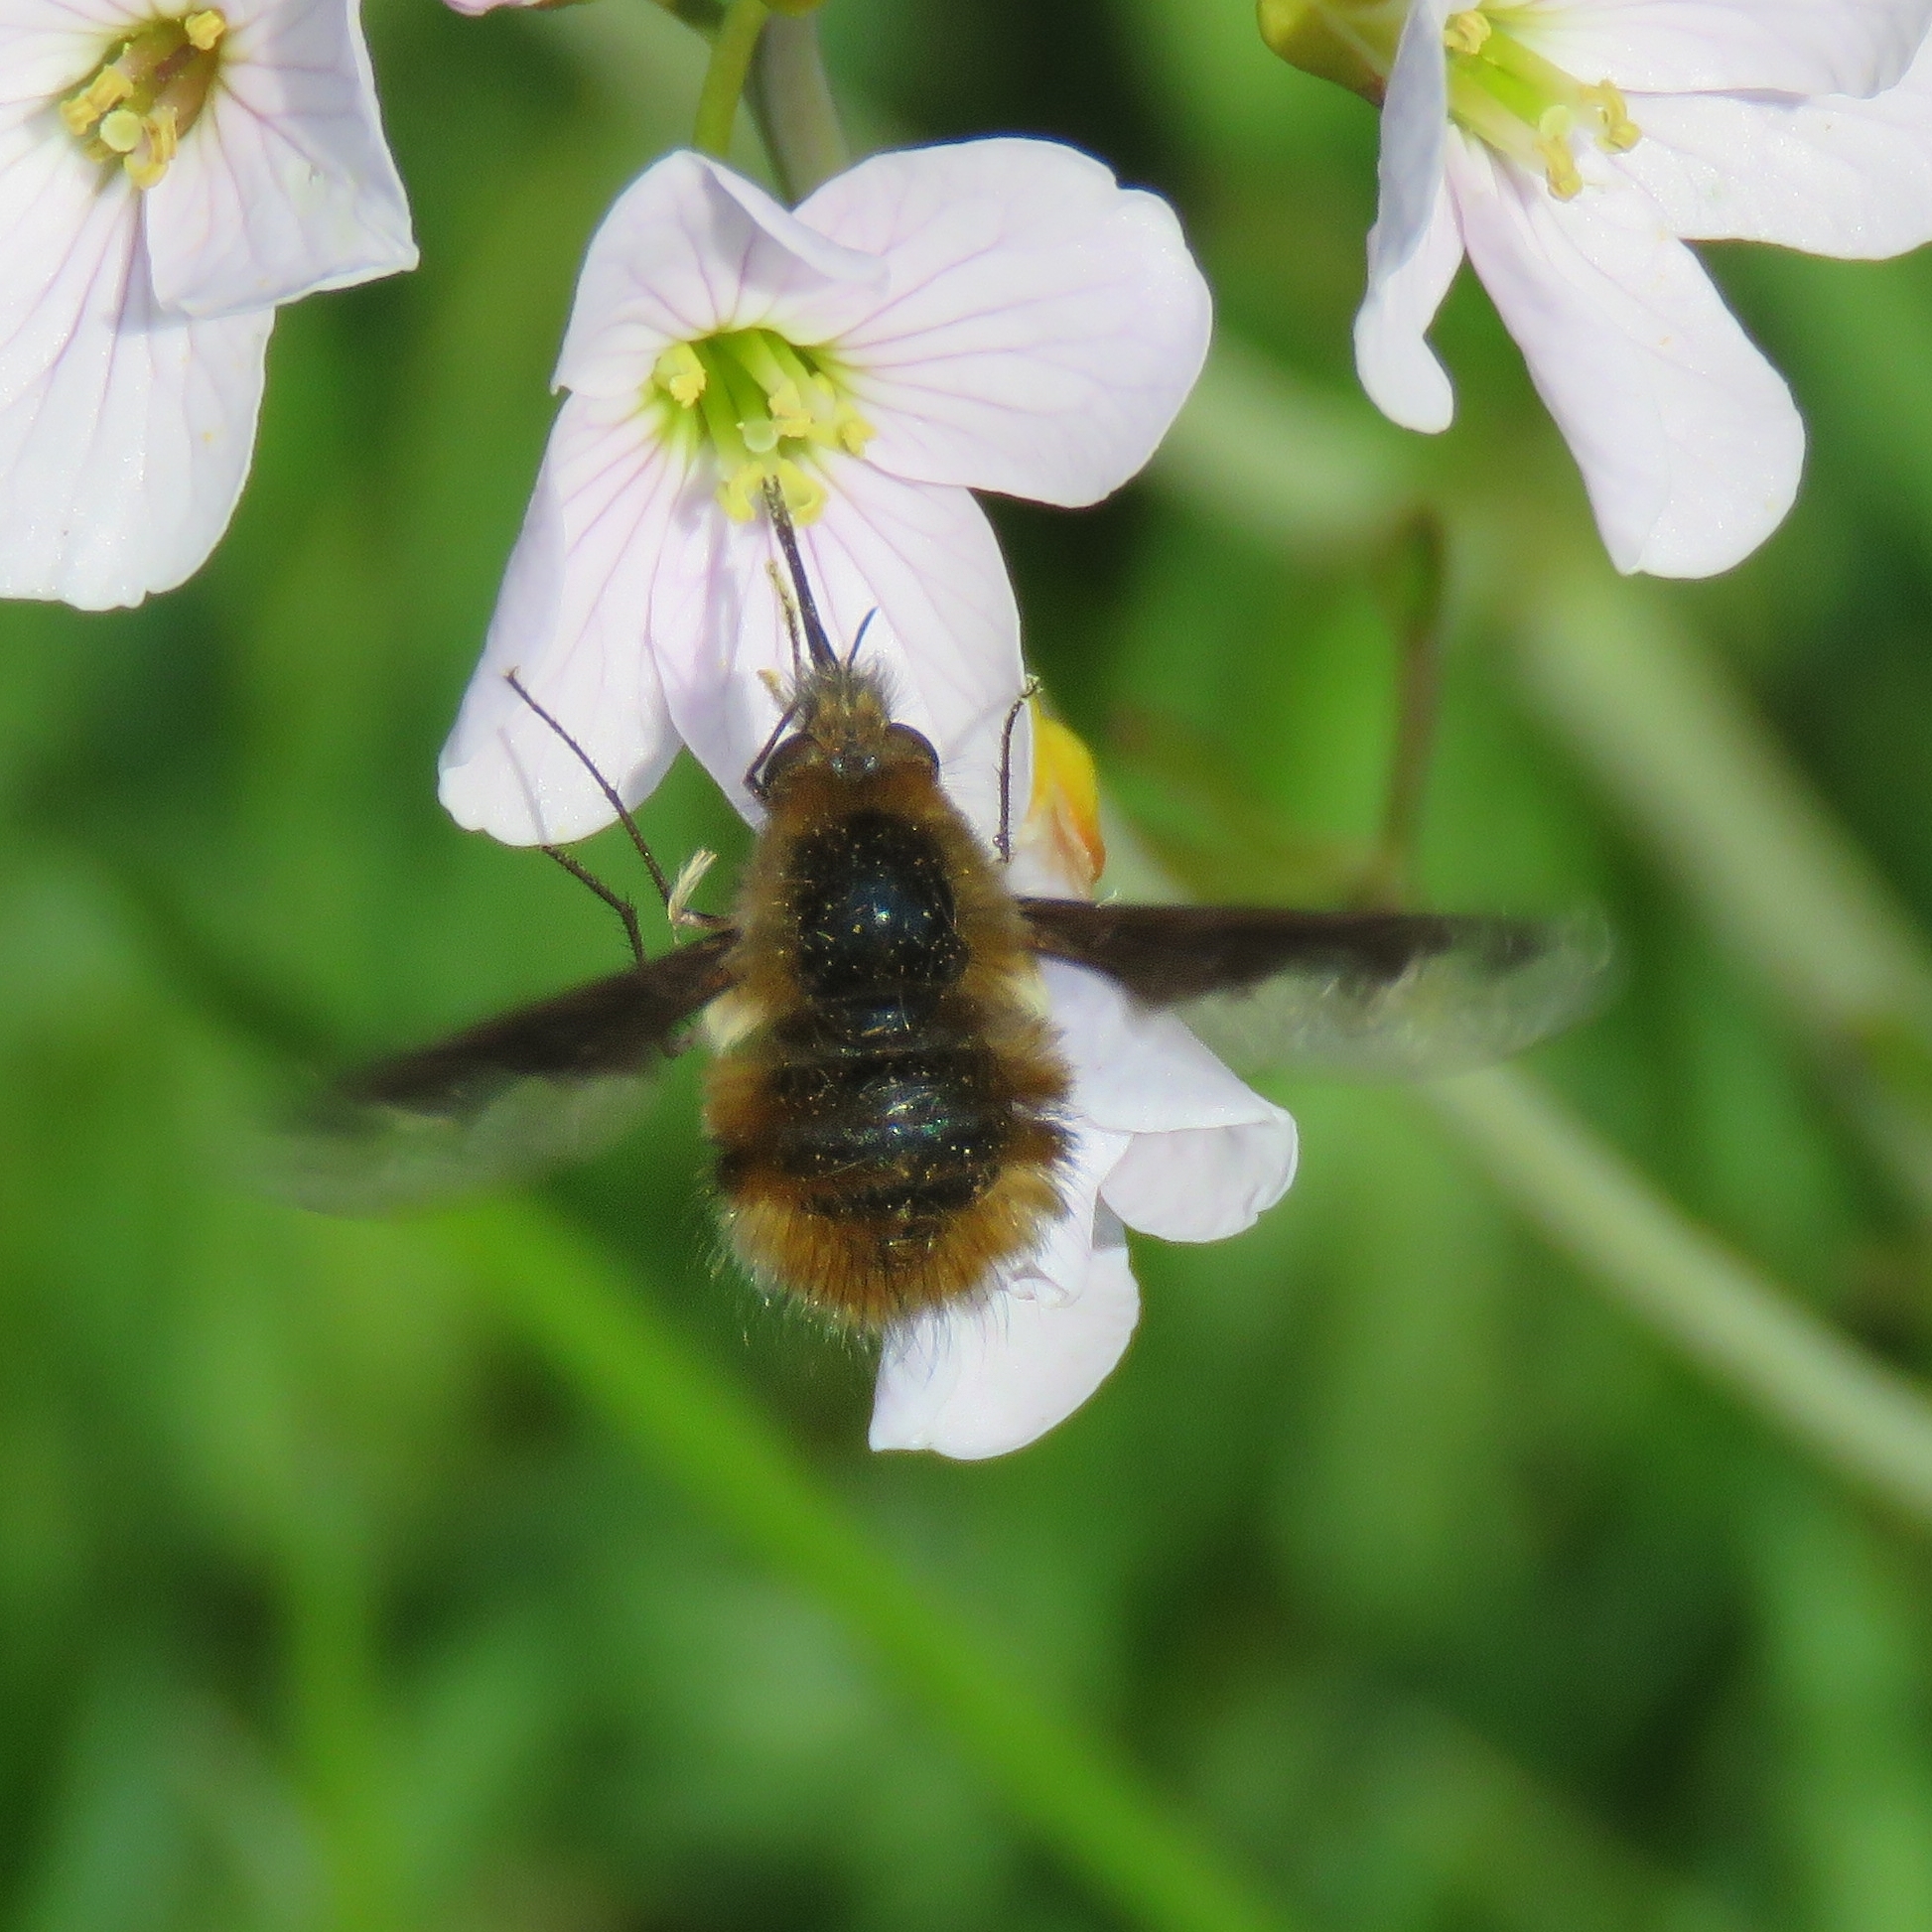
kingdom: Animalia
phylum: Arthropoda
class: Insecta
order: Diptera
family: Bombyliidae
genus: Bombylius
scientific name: Bombylius major
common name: Bee fly
